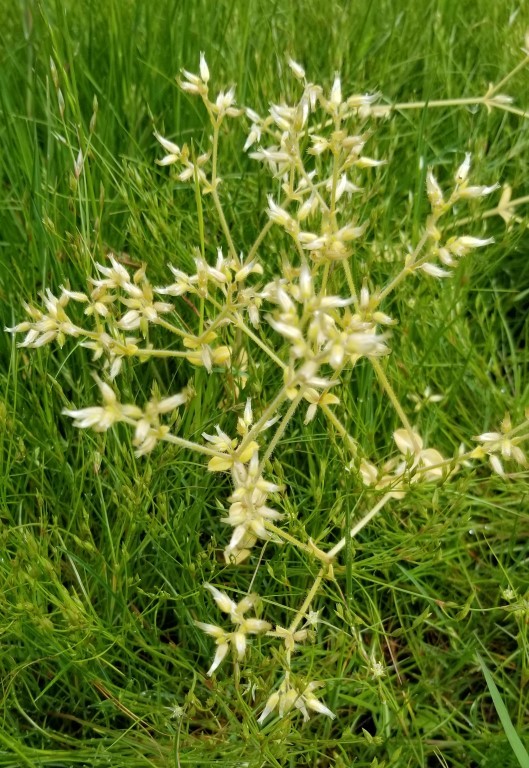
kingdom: Plantae
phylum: Tracheophyta
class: Magnoliopsida
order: Caryophyllales
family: Caryophyllaceae
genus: Cerastium
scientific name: Cerastium glomeratum
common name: Sticky chickweed
